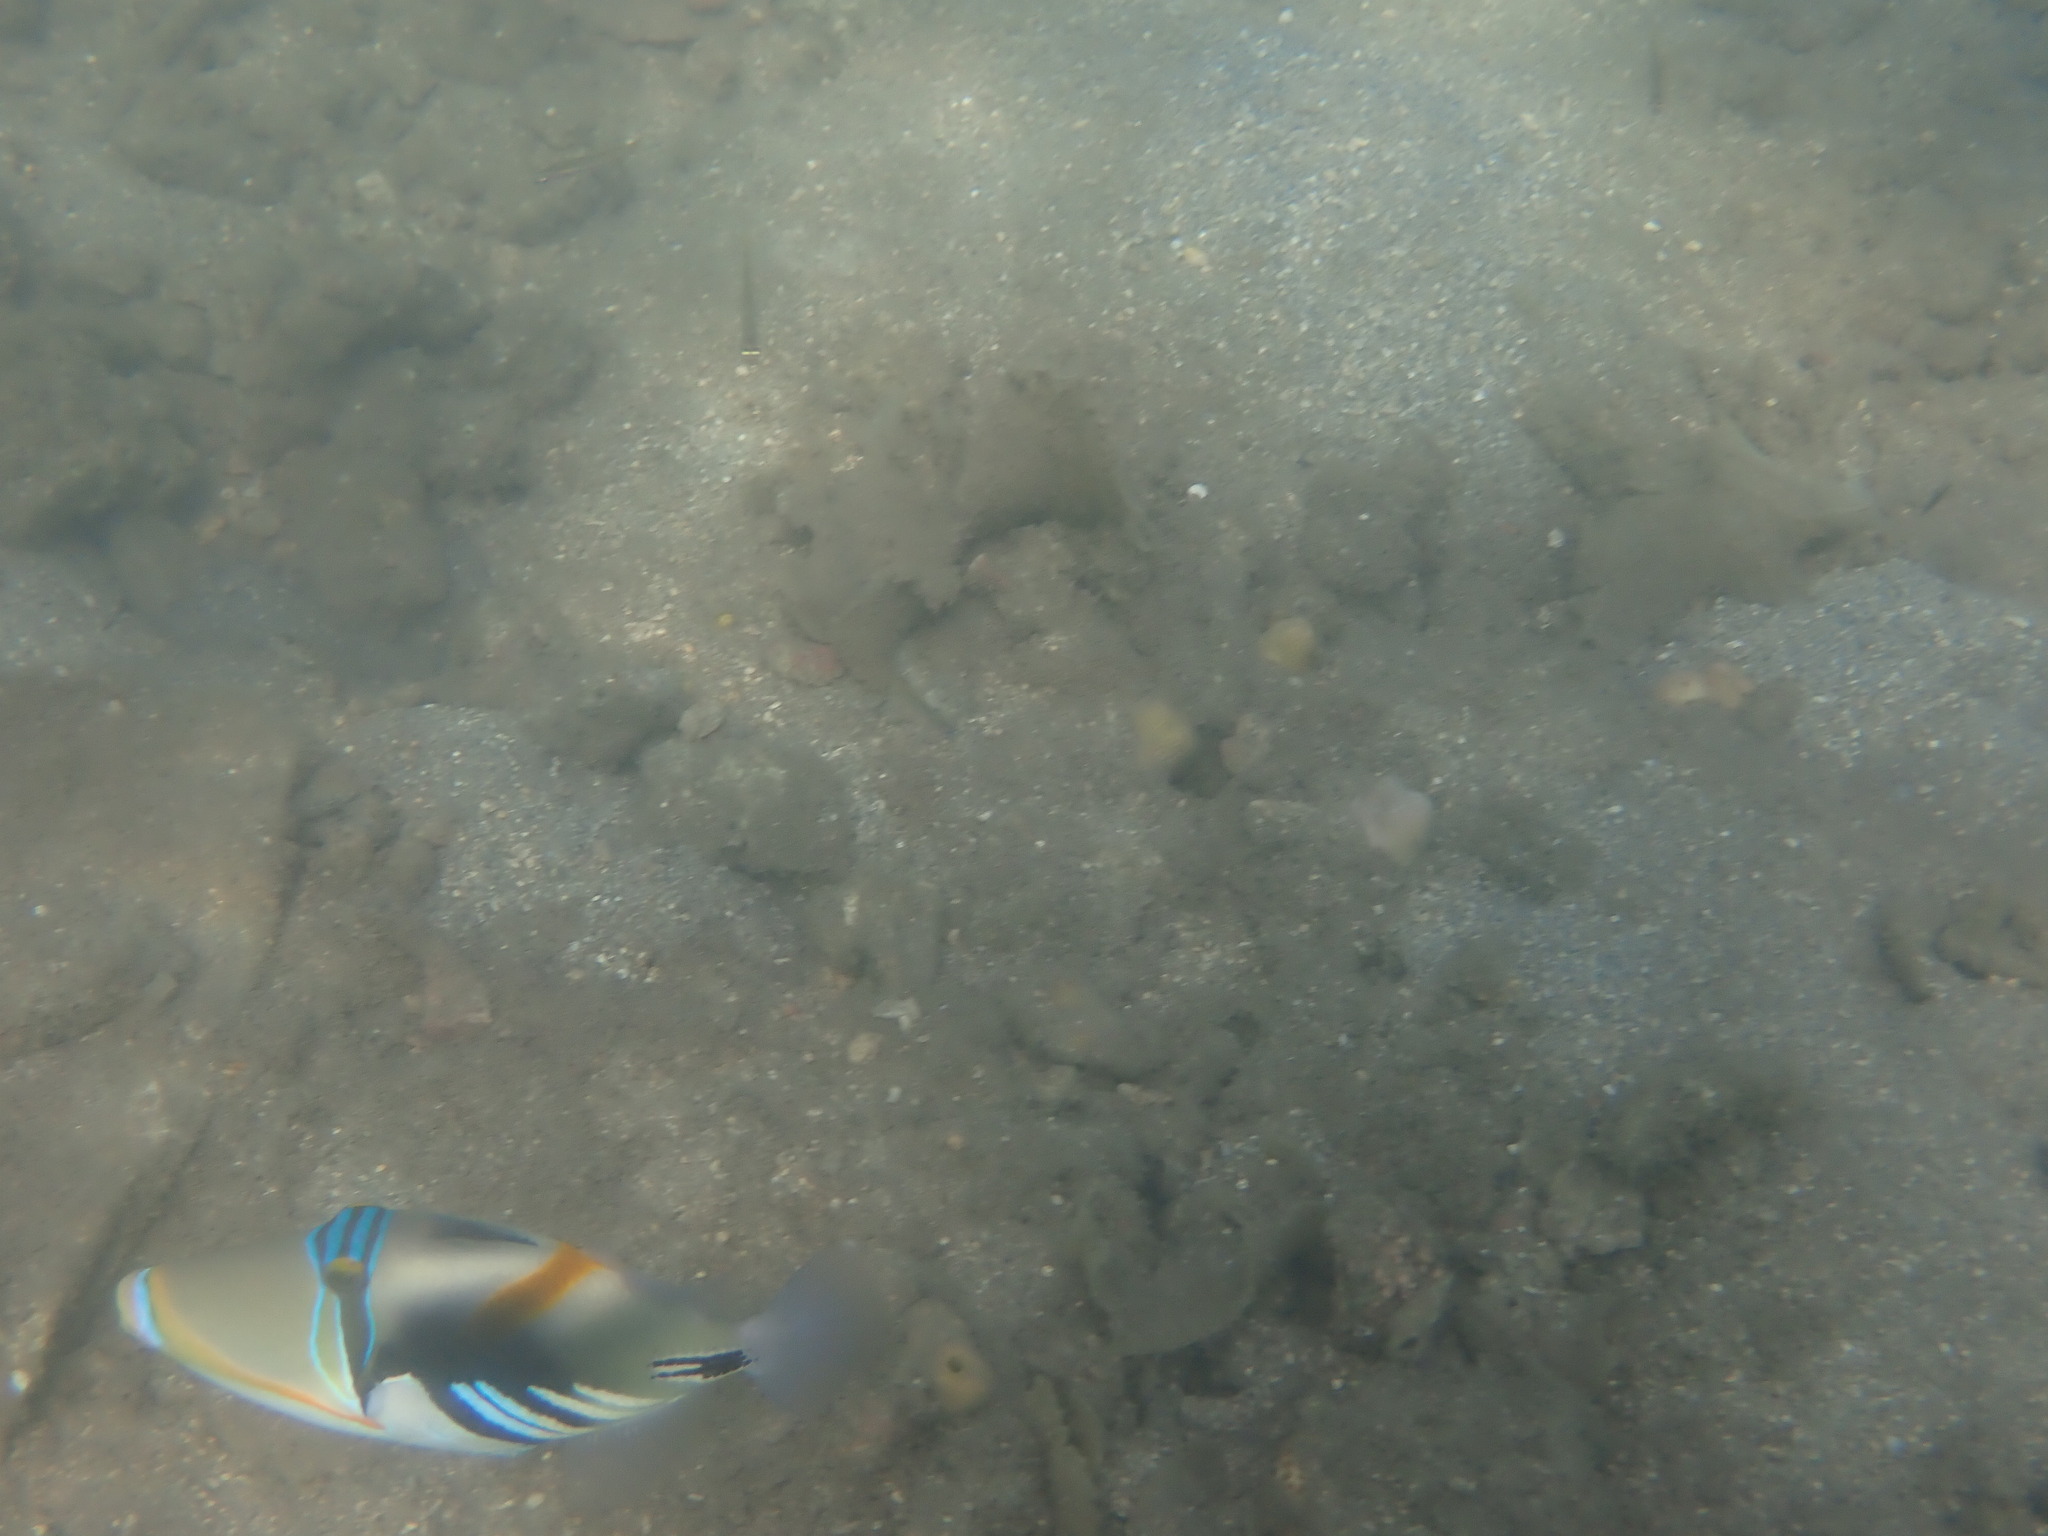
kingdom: Animalia
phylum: Chordata
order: Tetraodontiformes
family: Balistidae
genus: Rhinecanthus
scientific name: Rhinecanthus aculeatus
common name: White-banded triggerfish
